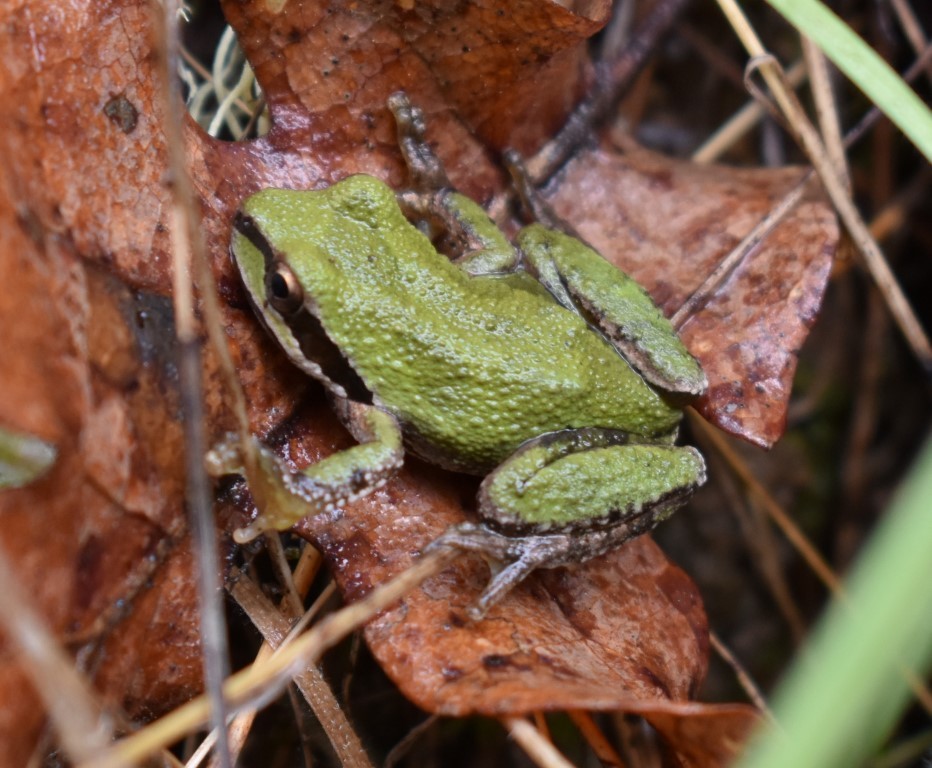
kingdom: Animalia
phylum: Chordata
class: Amphibia
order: Anura
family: Hylidae
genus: Pseudacris
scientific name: Pseudacris regilla
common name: Pacific chorus frog
